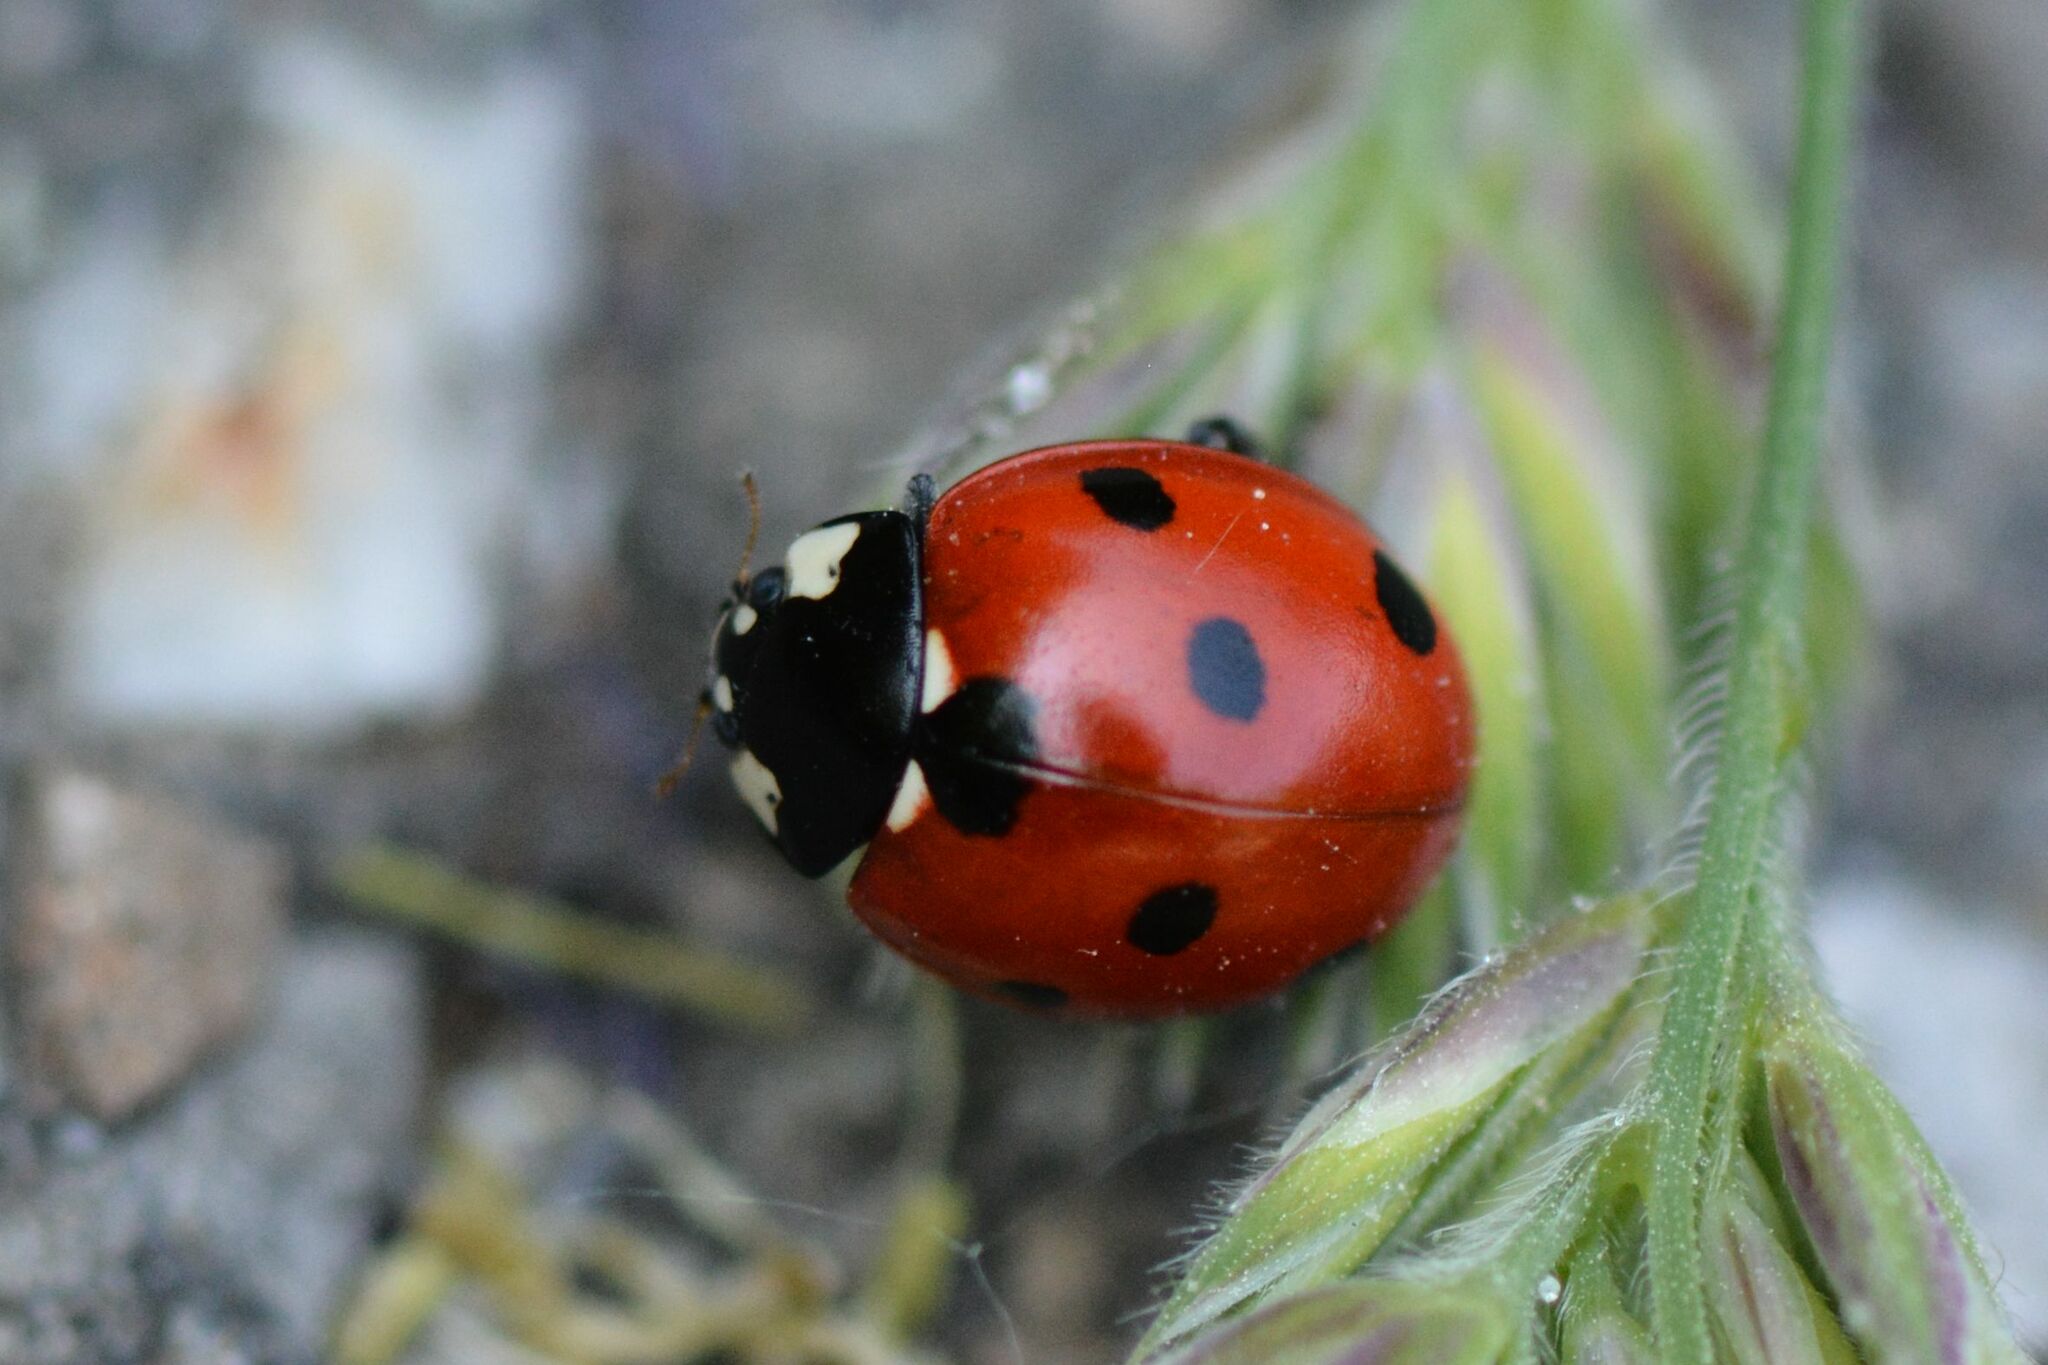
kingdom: Animalia
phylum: Arthropoda
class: Insecta
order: Coleoptera
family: Coccinellidae
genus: Coccinella
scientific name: Coccinella septempunctata
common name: Sevenspotted lady beetle
